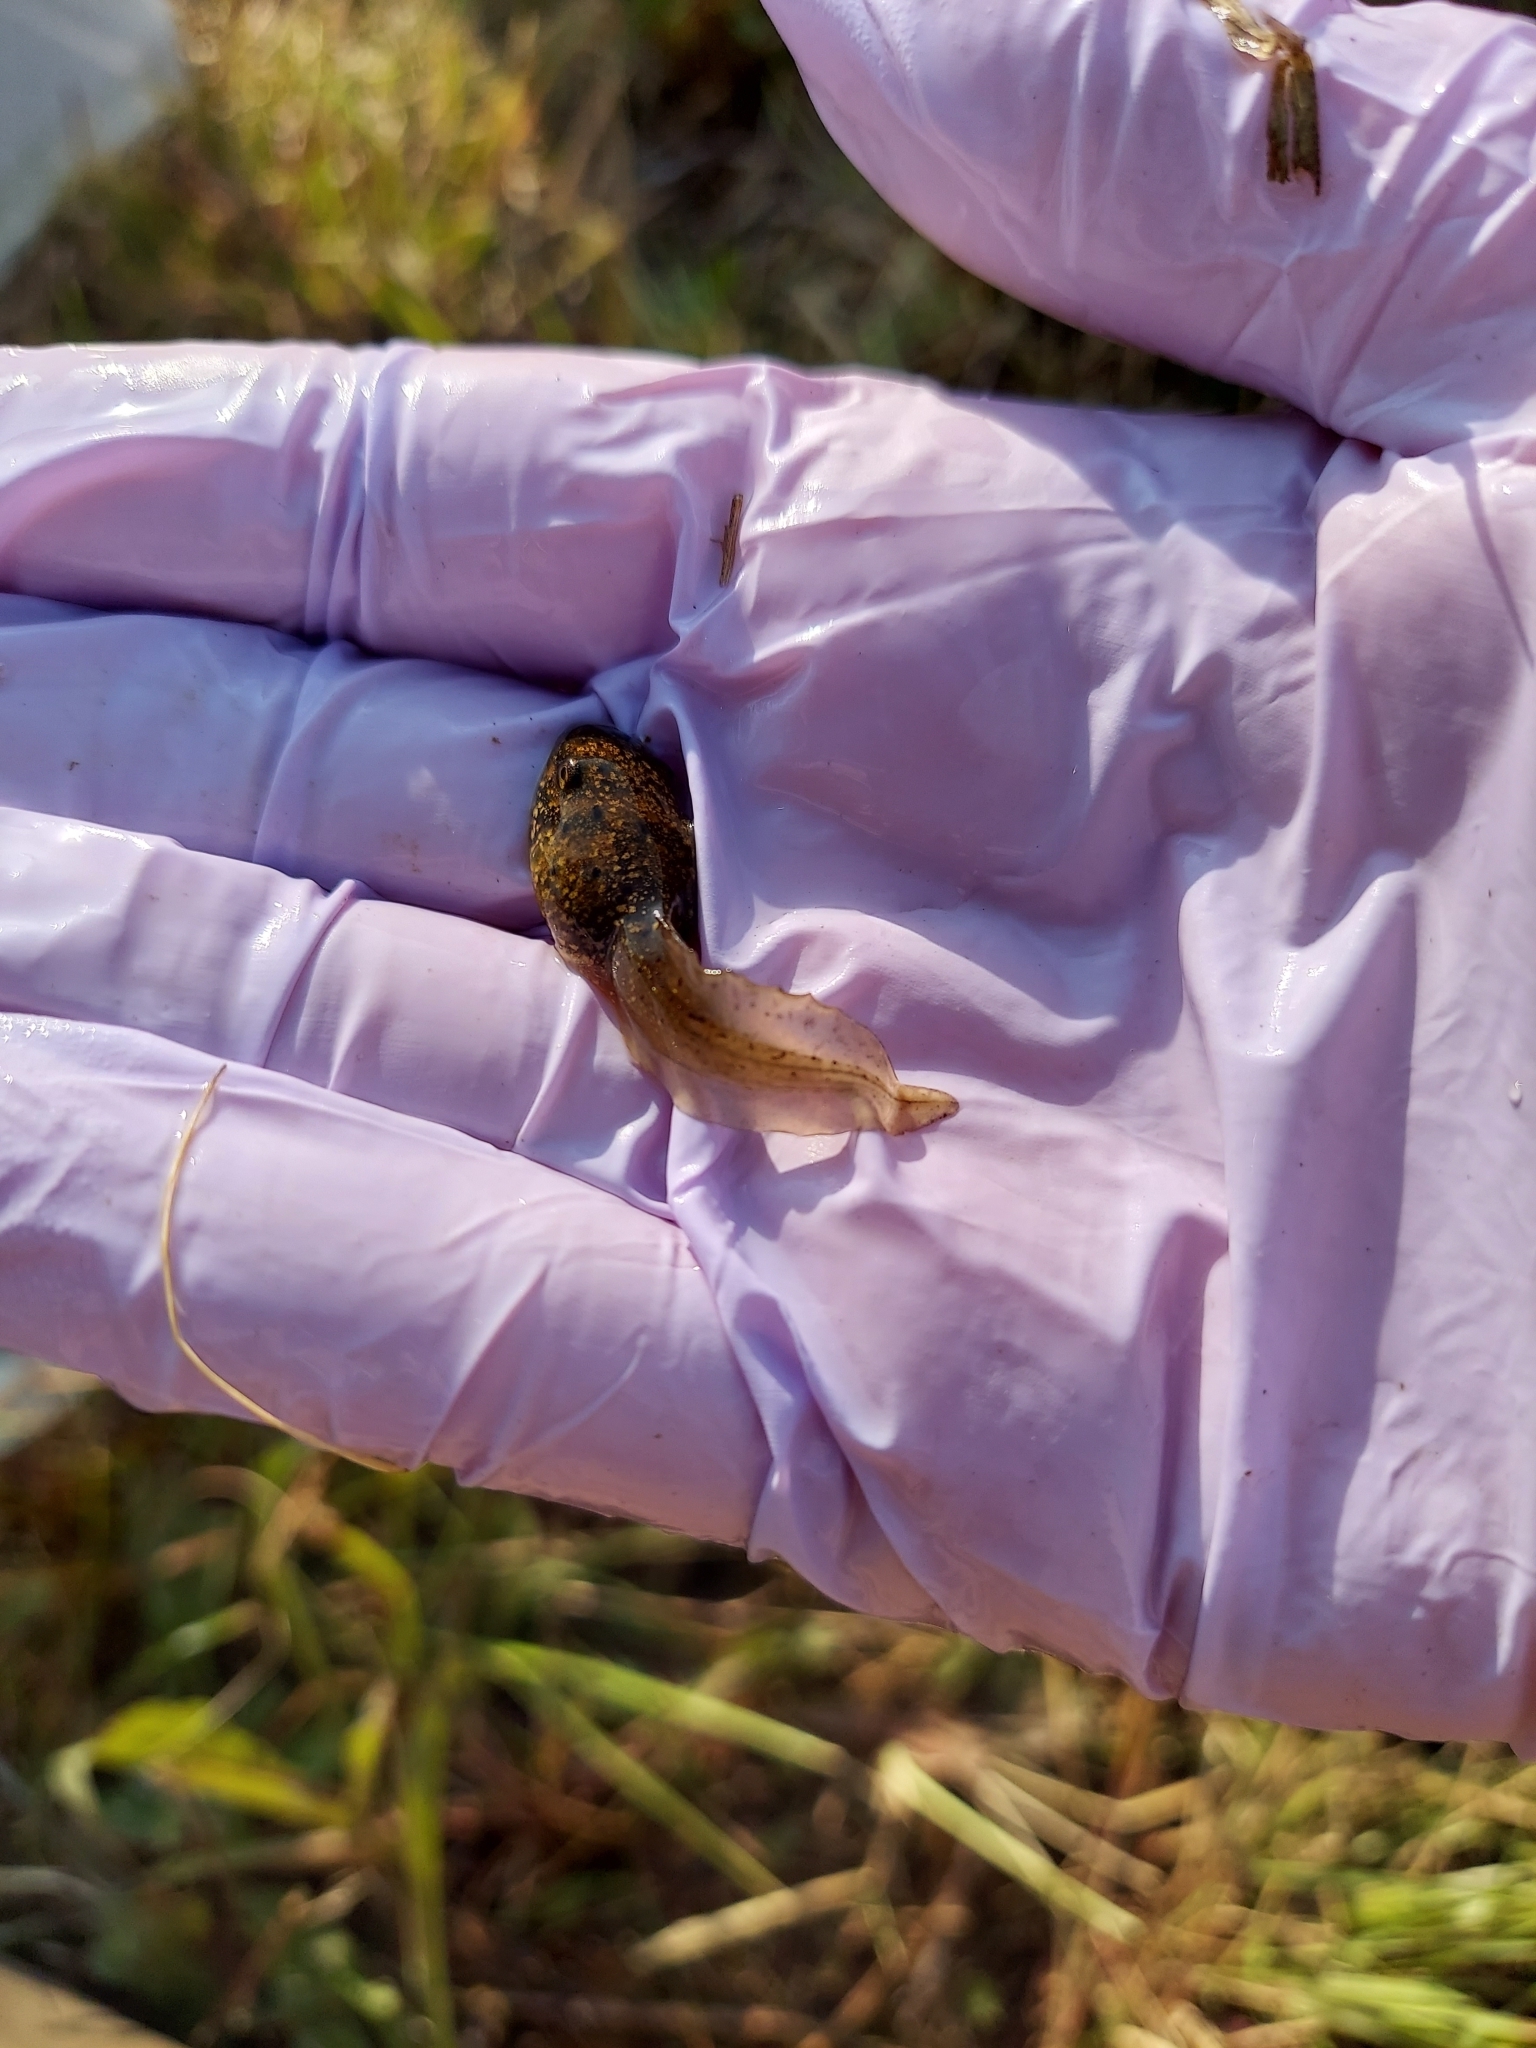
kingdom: Animalia
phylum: Chordata
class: Amphibia
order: Anura
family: Ranidae
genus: Lithobates
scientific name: Lithobates catesbeianus
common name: American bullfrog
